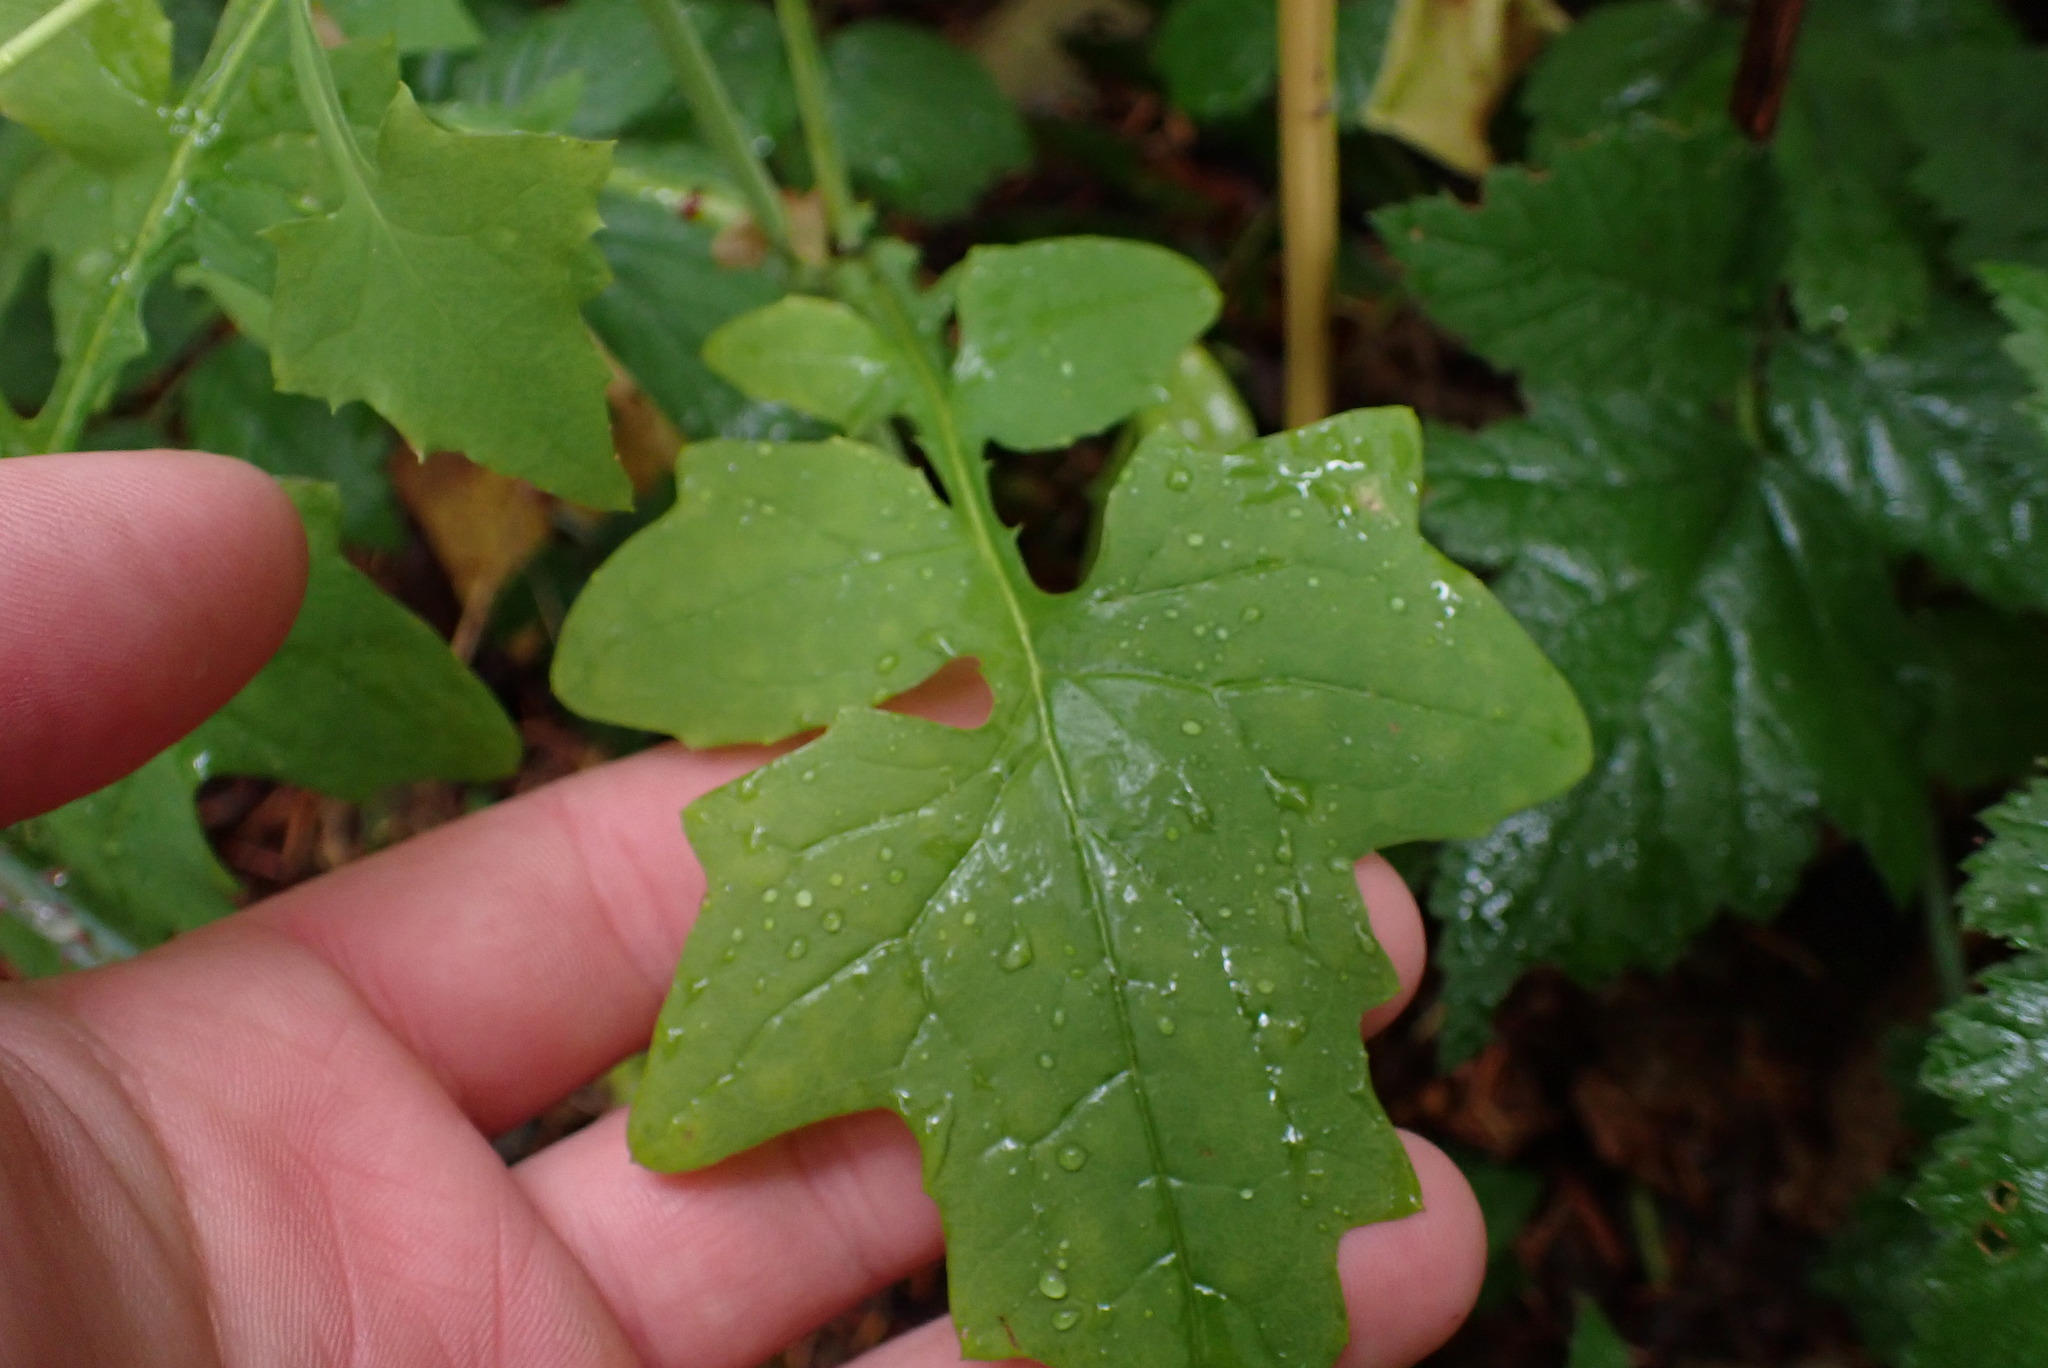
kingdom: Plantae
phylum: Tracheophyta
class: Magnoliopsida
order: Asterales
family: Asteraceae
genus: Mycelis
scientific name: Mycelis muralis
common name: Wall lettuce
